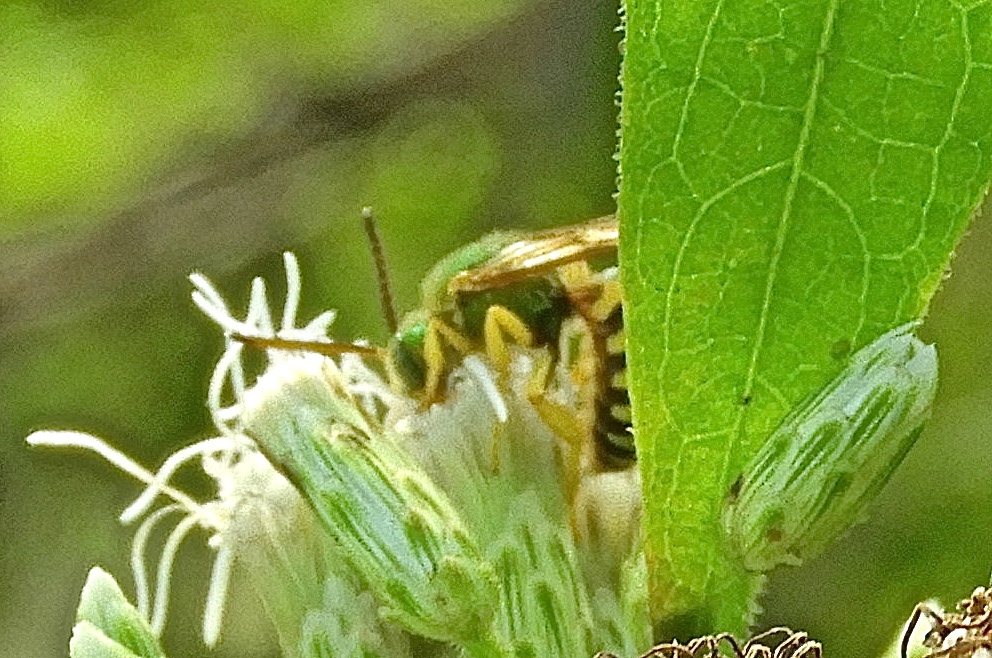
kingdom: Animalia
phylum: Arthropoda
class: Insecta
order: Hymenoptera
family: Halictidae
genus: Agapostemon
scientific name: Agapostemon
